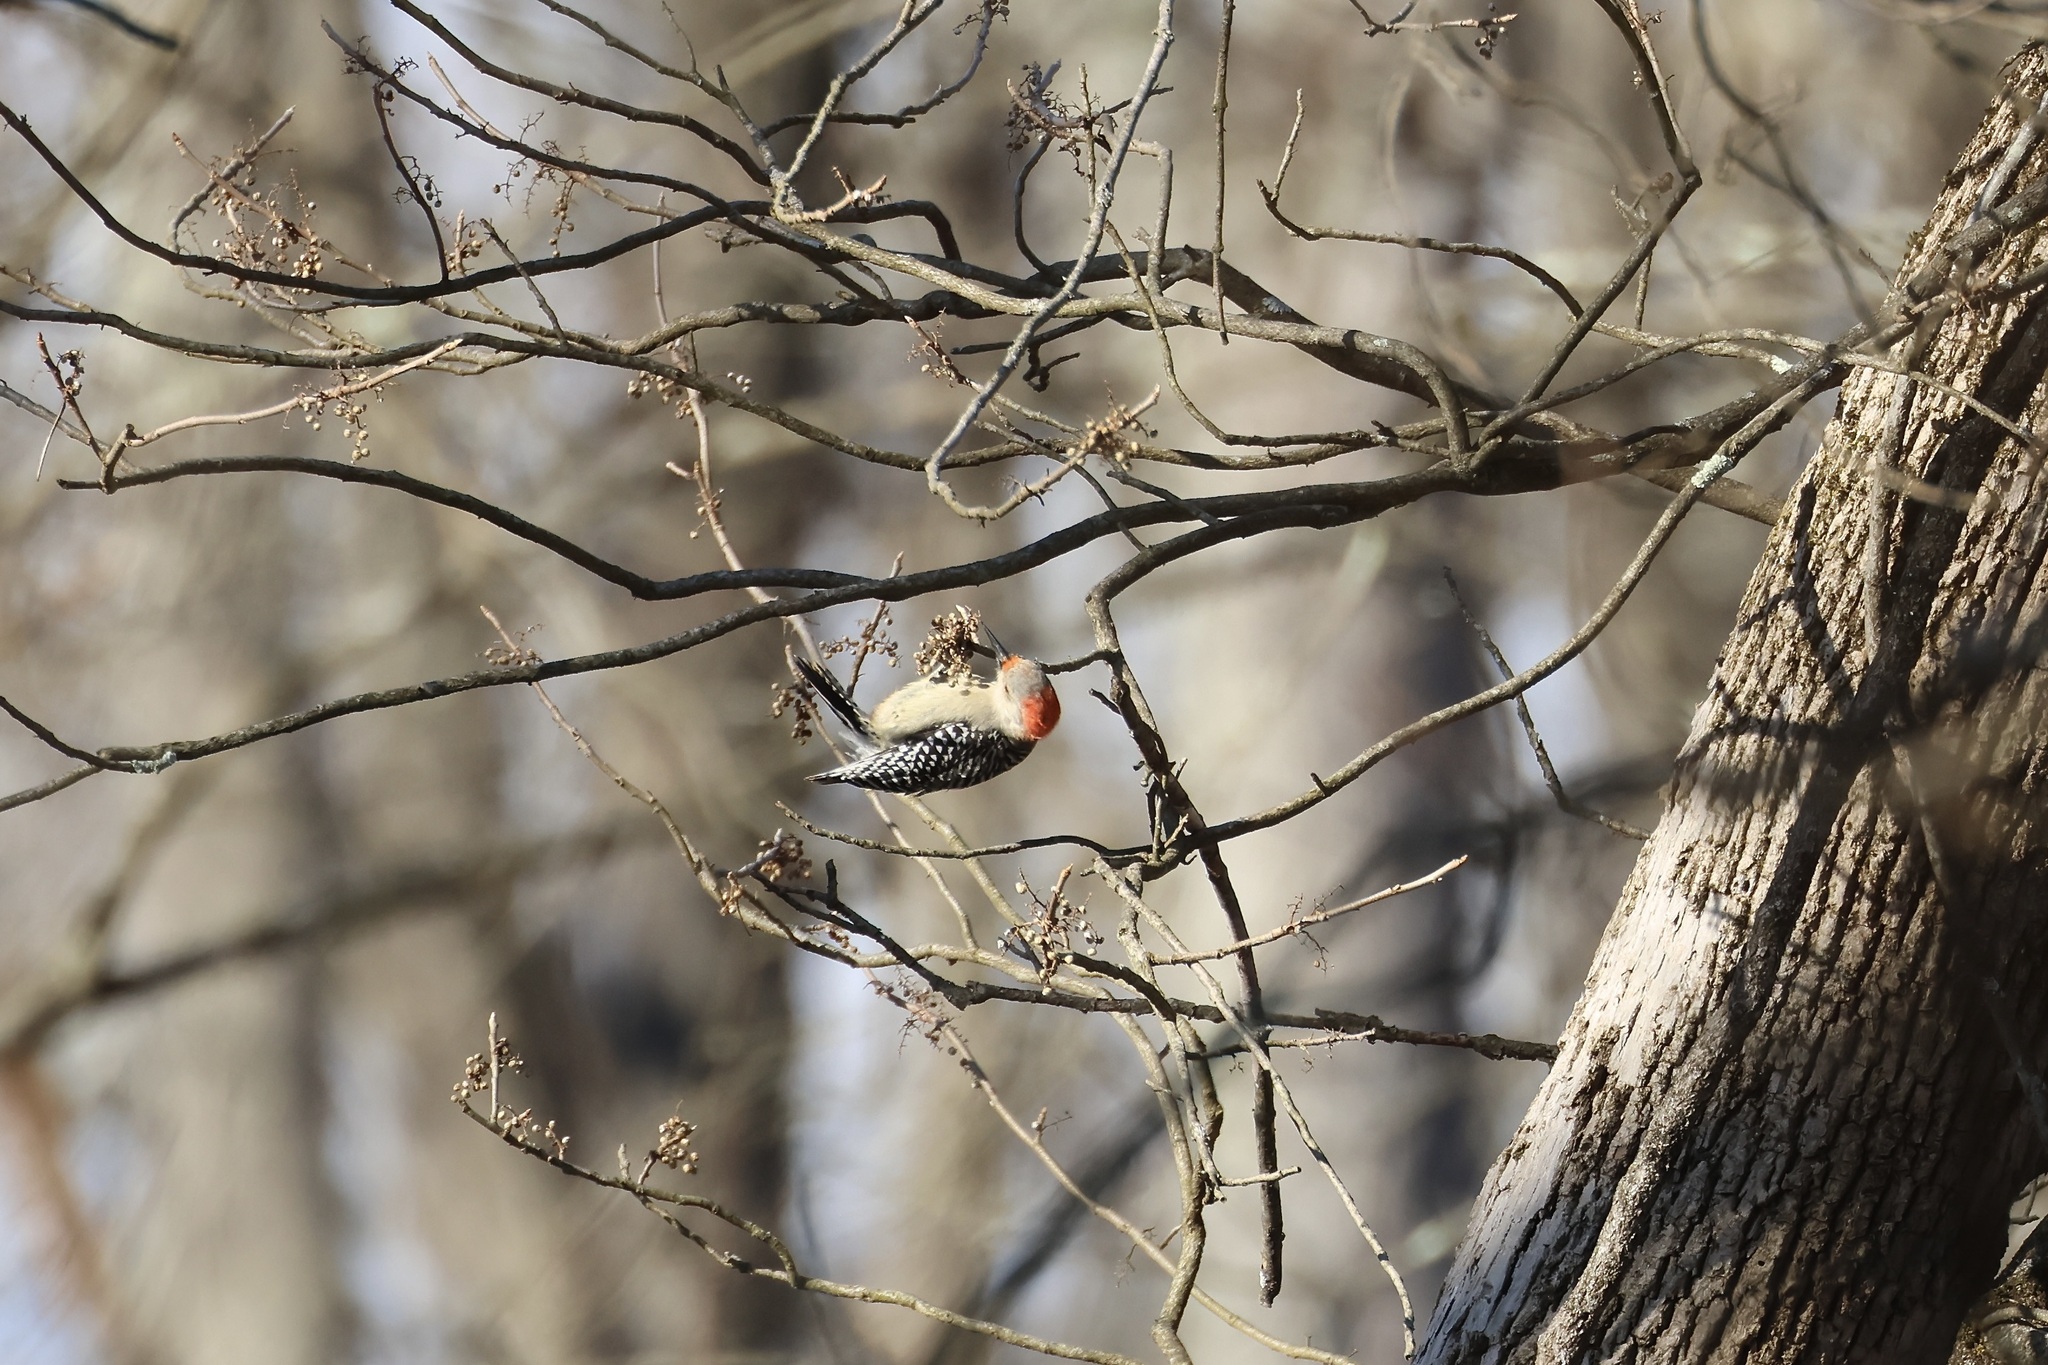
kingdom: Animalia
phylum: Chordata
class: Aves
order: Piciformes
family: Picidae
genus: Melanerpes
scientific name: Melanerpes carolinus
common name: Red-bellied woodpecker
